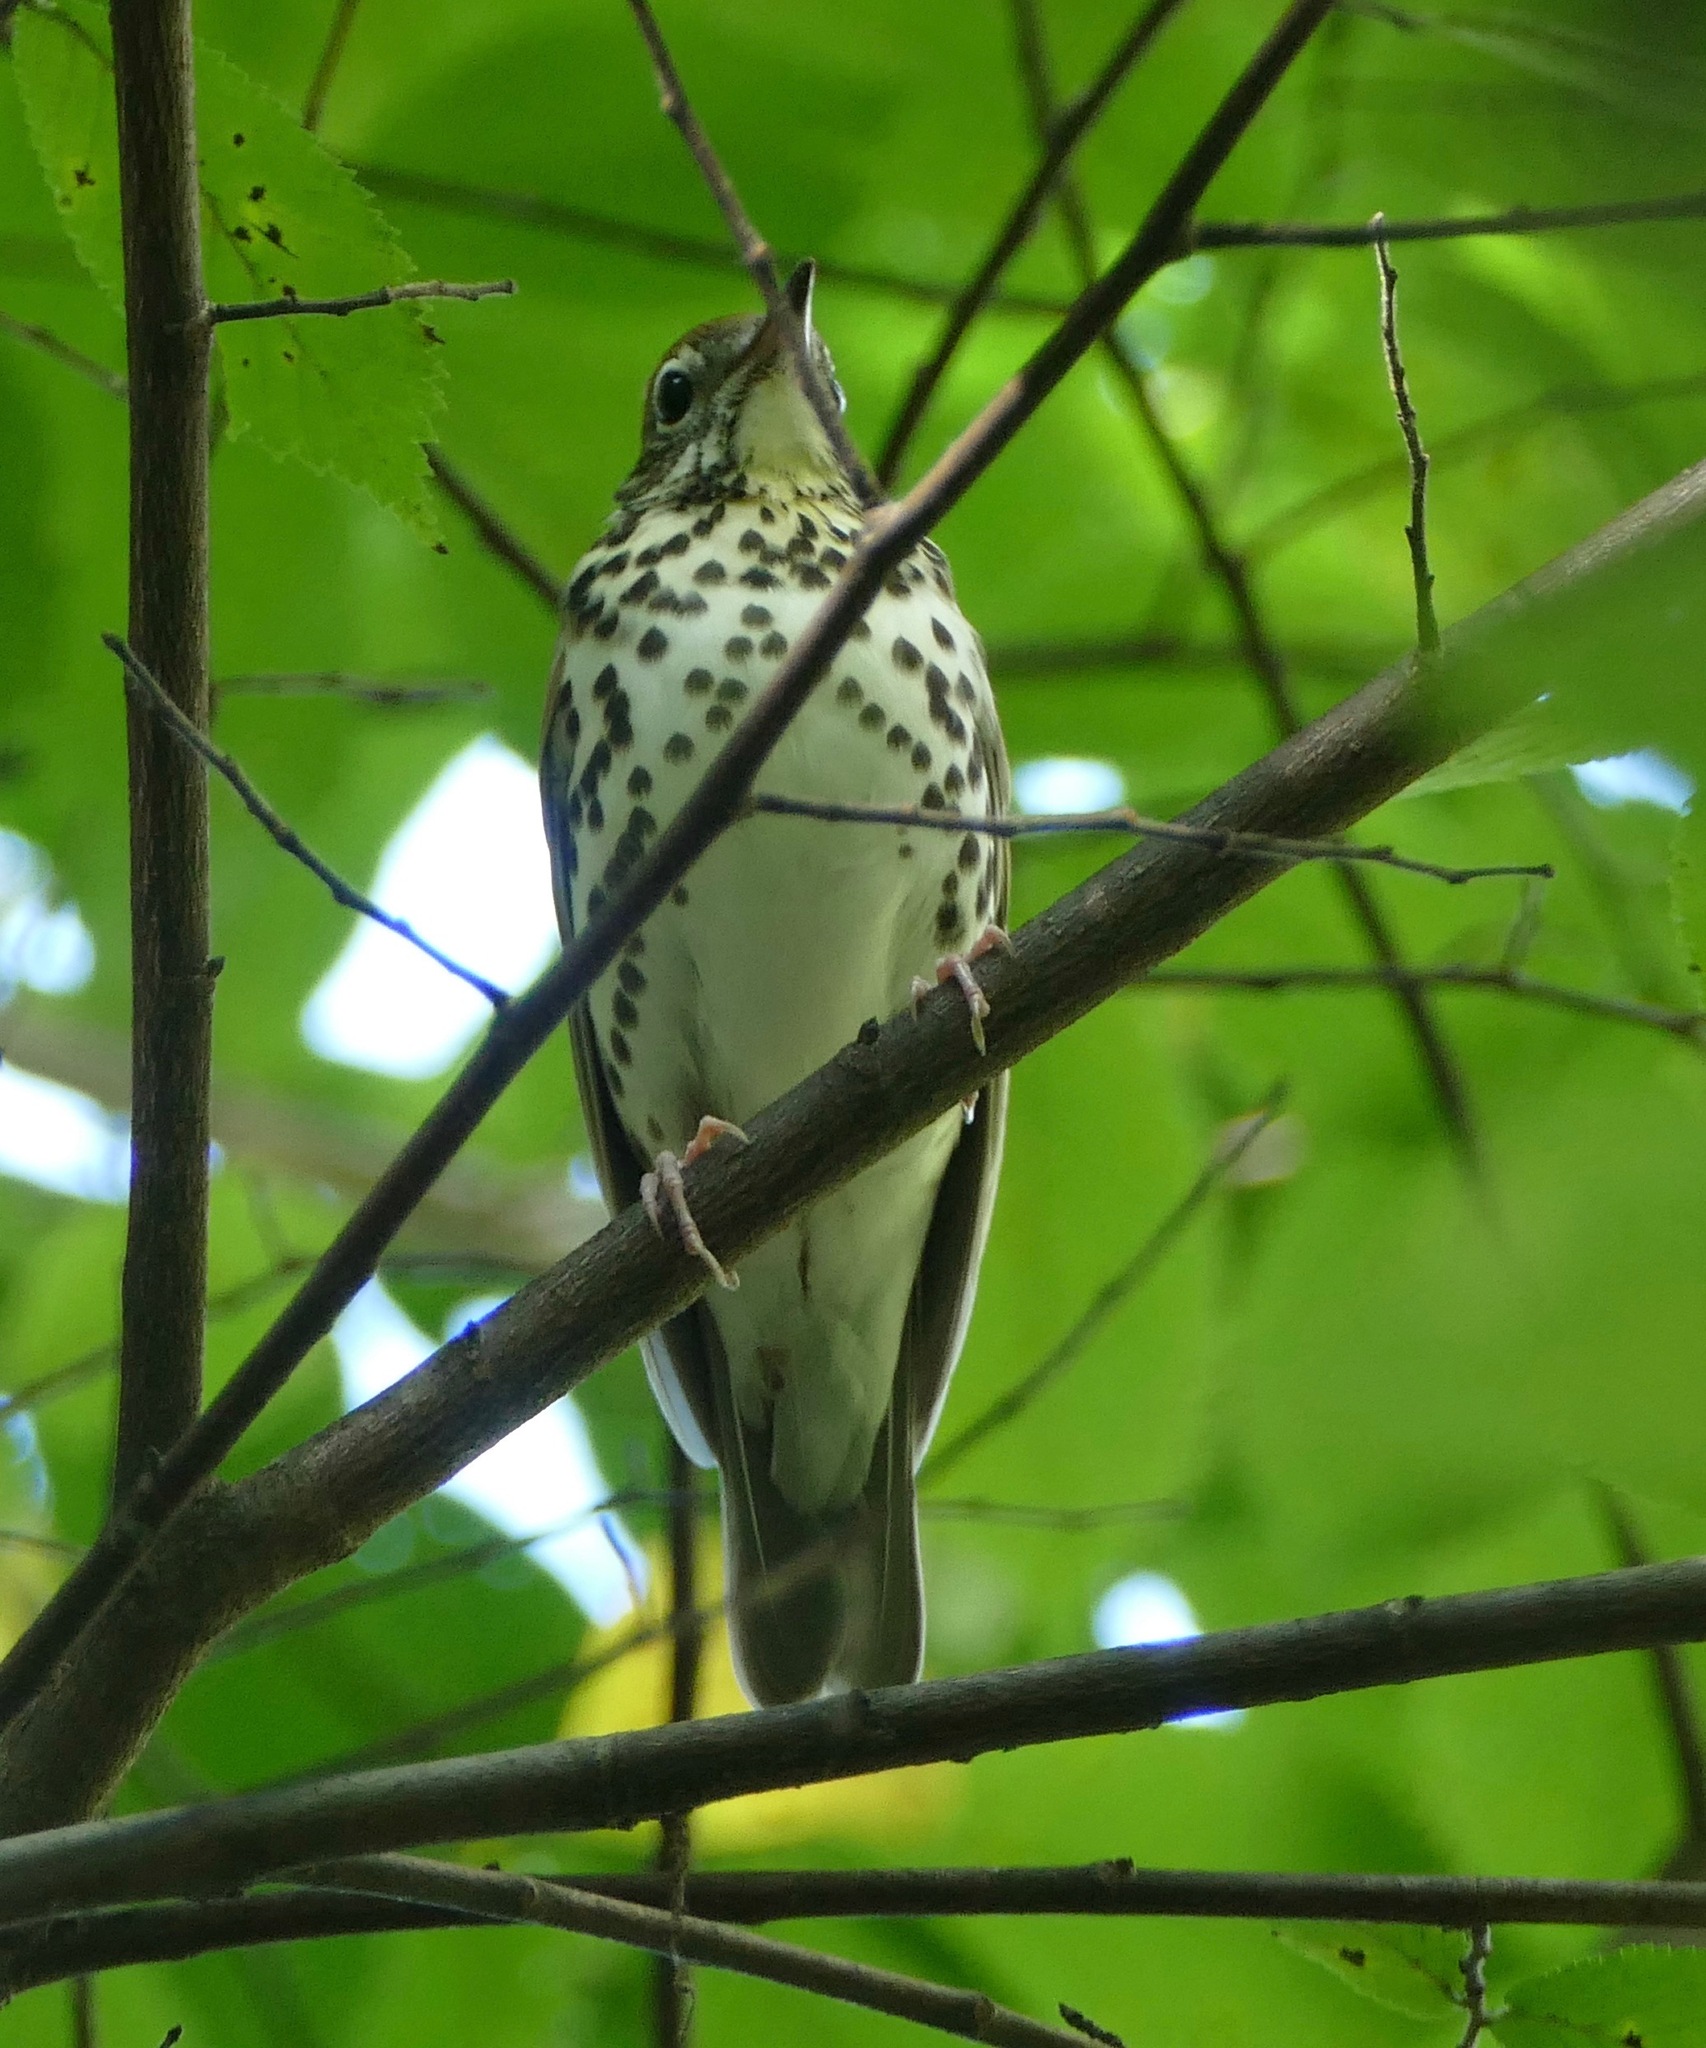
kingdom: Animalia
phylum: Chordata
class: Aves
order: Passeriformes
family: Turdidae
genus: Hylocichla
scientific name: Hylocichla mustelina
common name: Wood thrush
